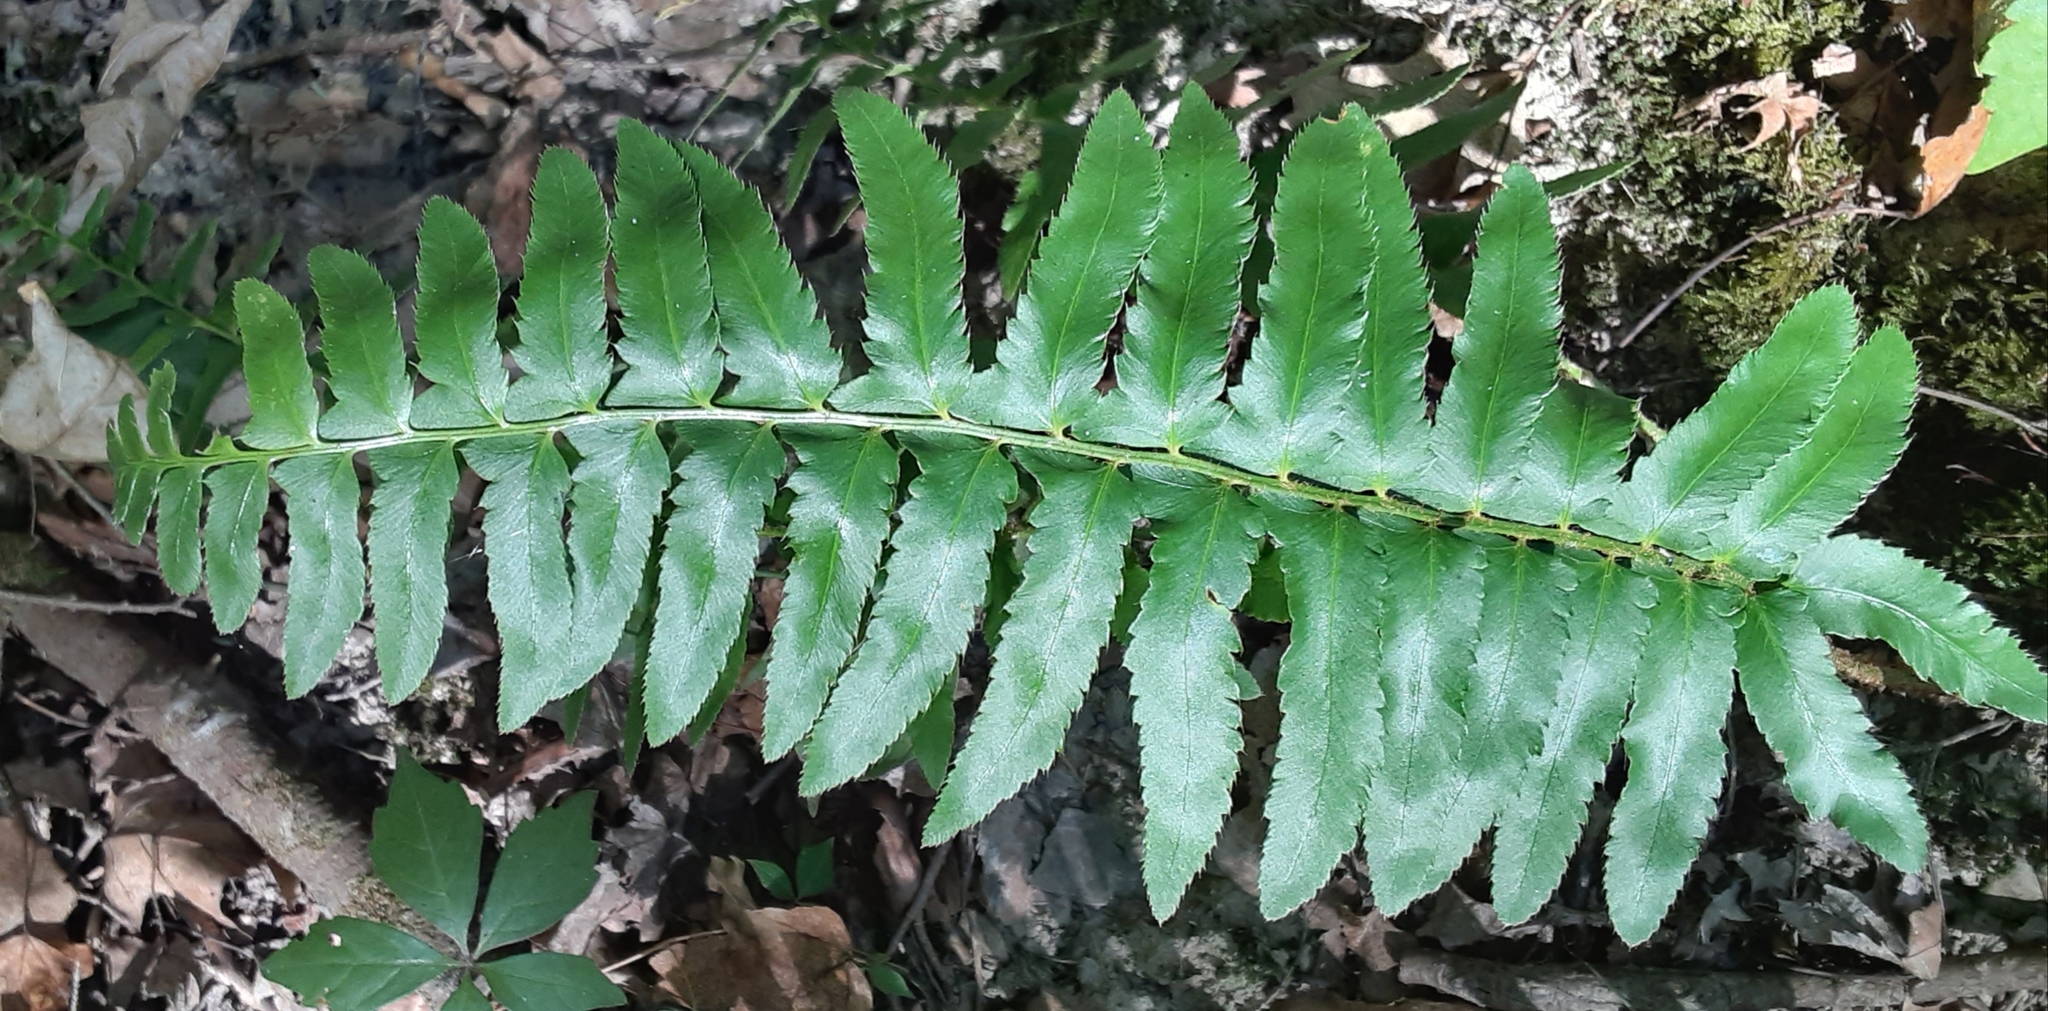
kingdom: Plantae
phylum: Tracheophyta
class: Polypodiopsida
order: Polypodiales
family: Dryopteridaceae
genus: Polystichum
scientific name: Polystichum acrostichoides
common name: Christmas fern
